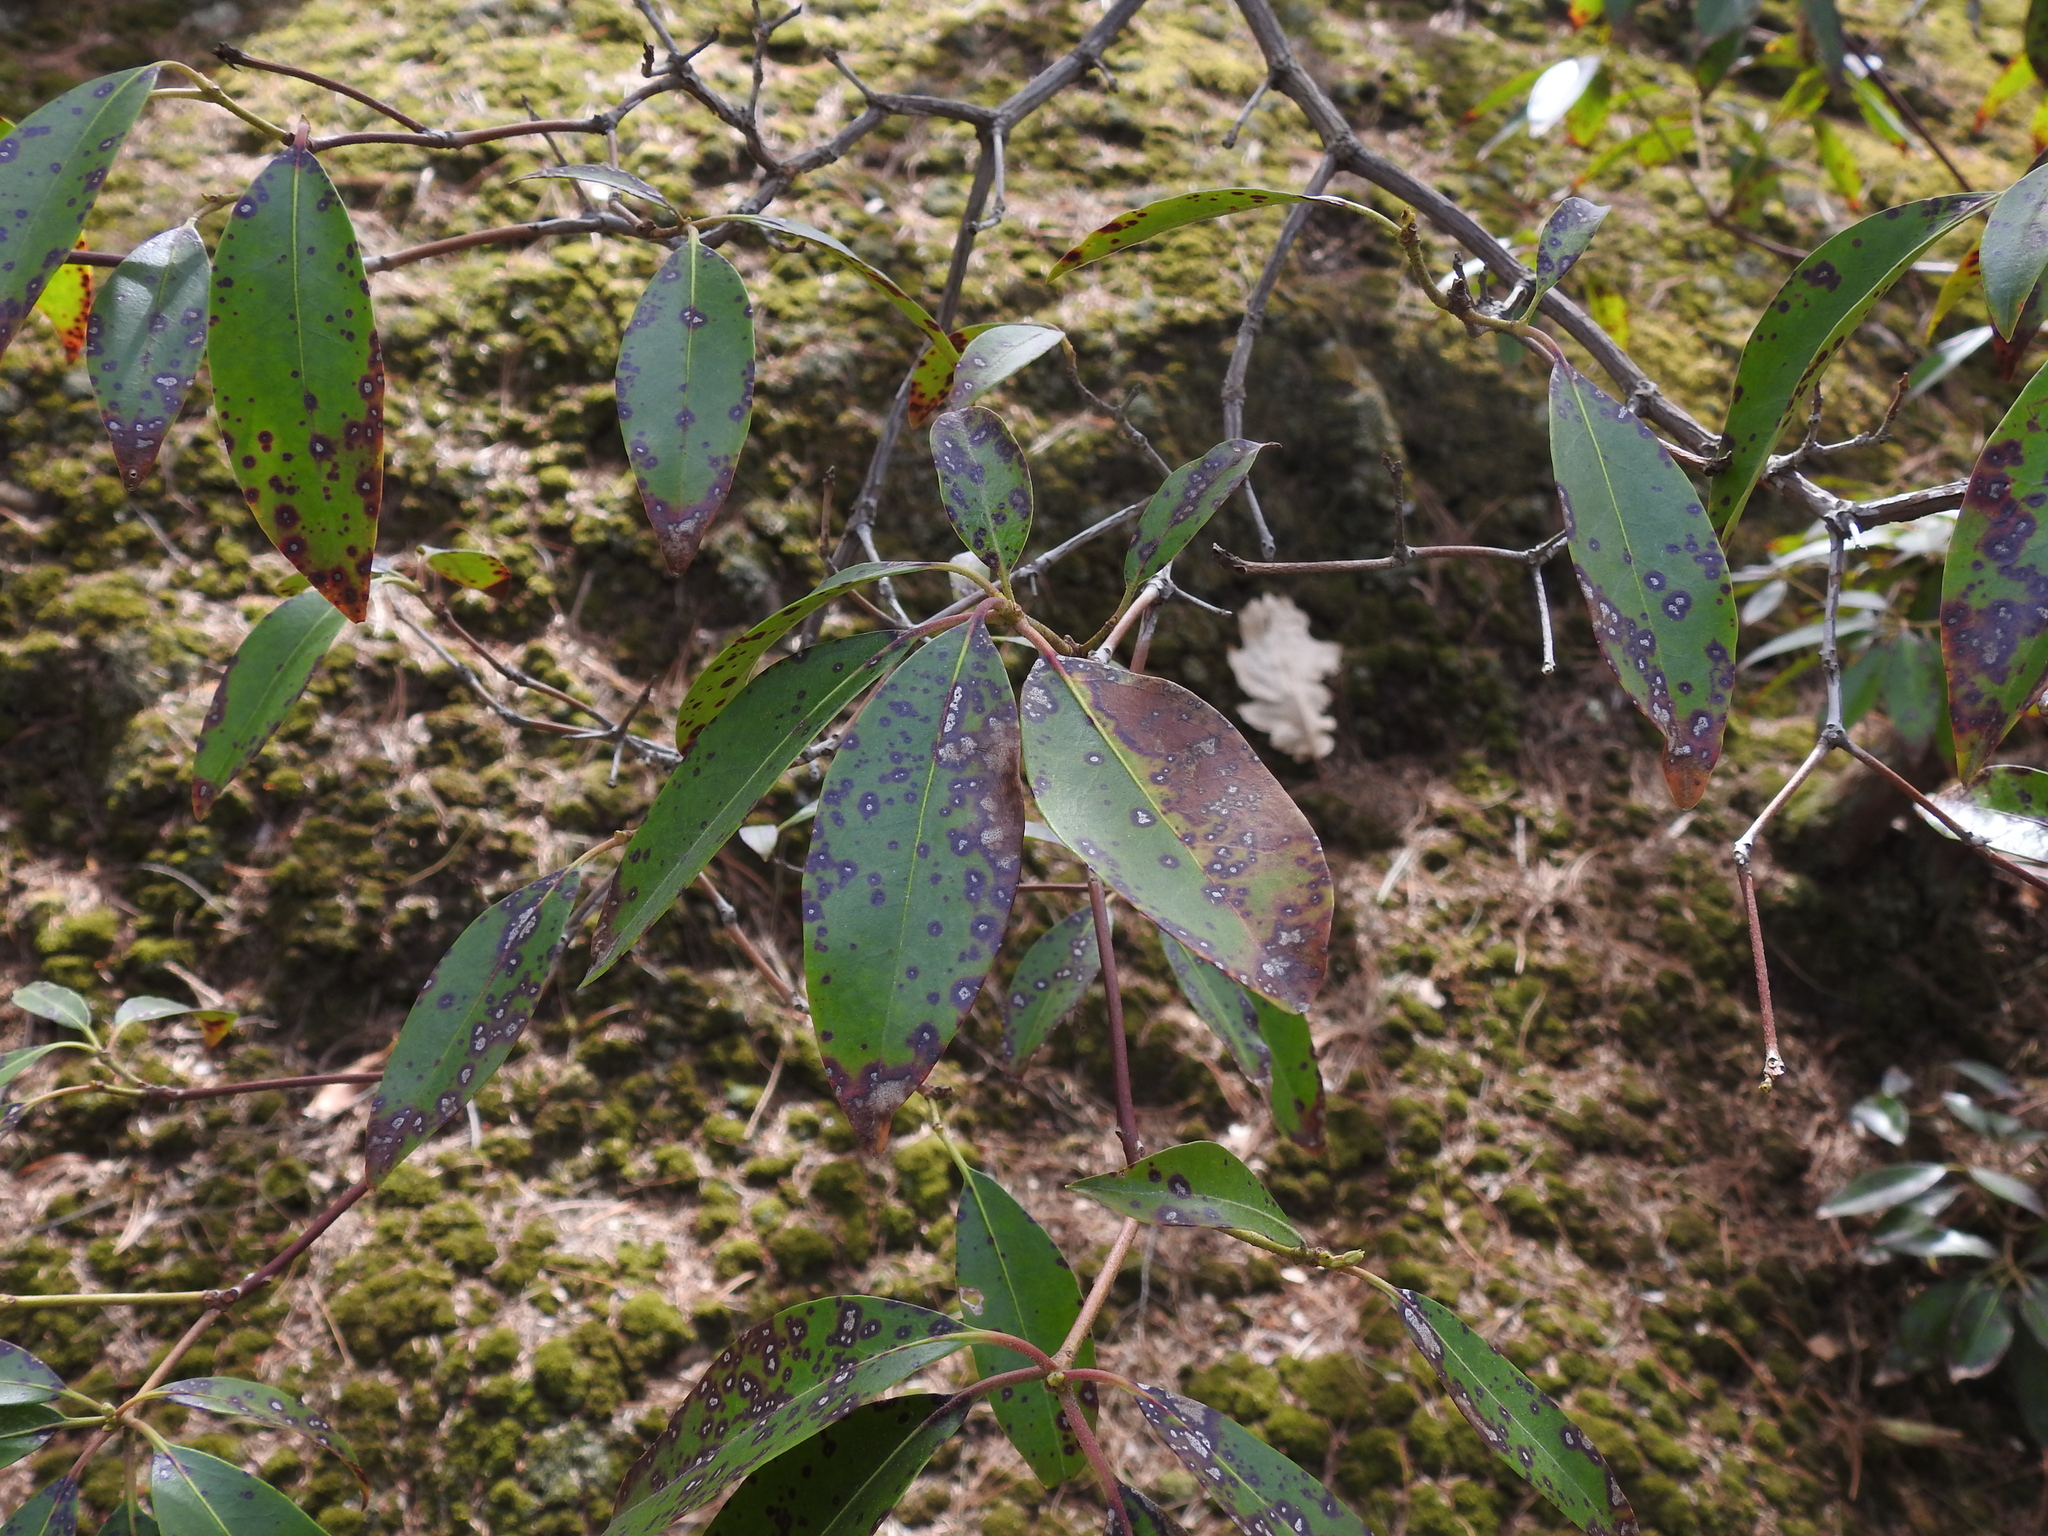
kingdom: Plantae
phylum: Tracheophyta
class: Magnoliopsida
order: Ericales
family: Ericaceae
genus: Kalmia
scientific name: Kalmia latifolia
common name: Mountain-laurel
